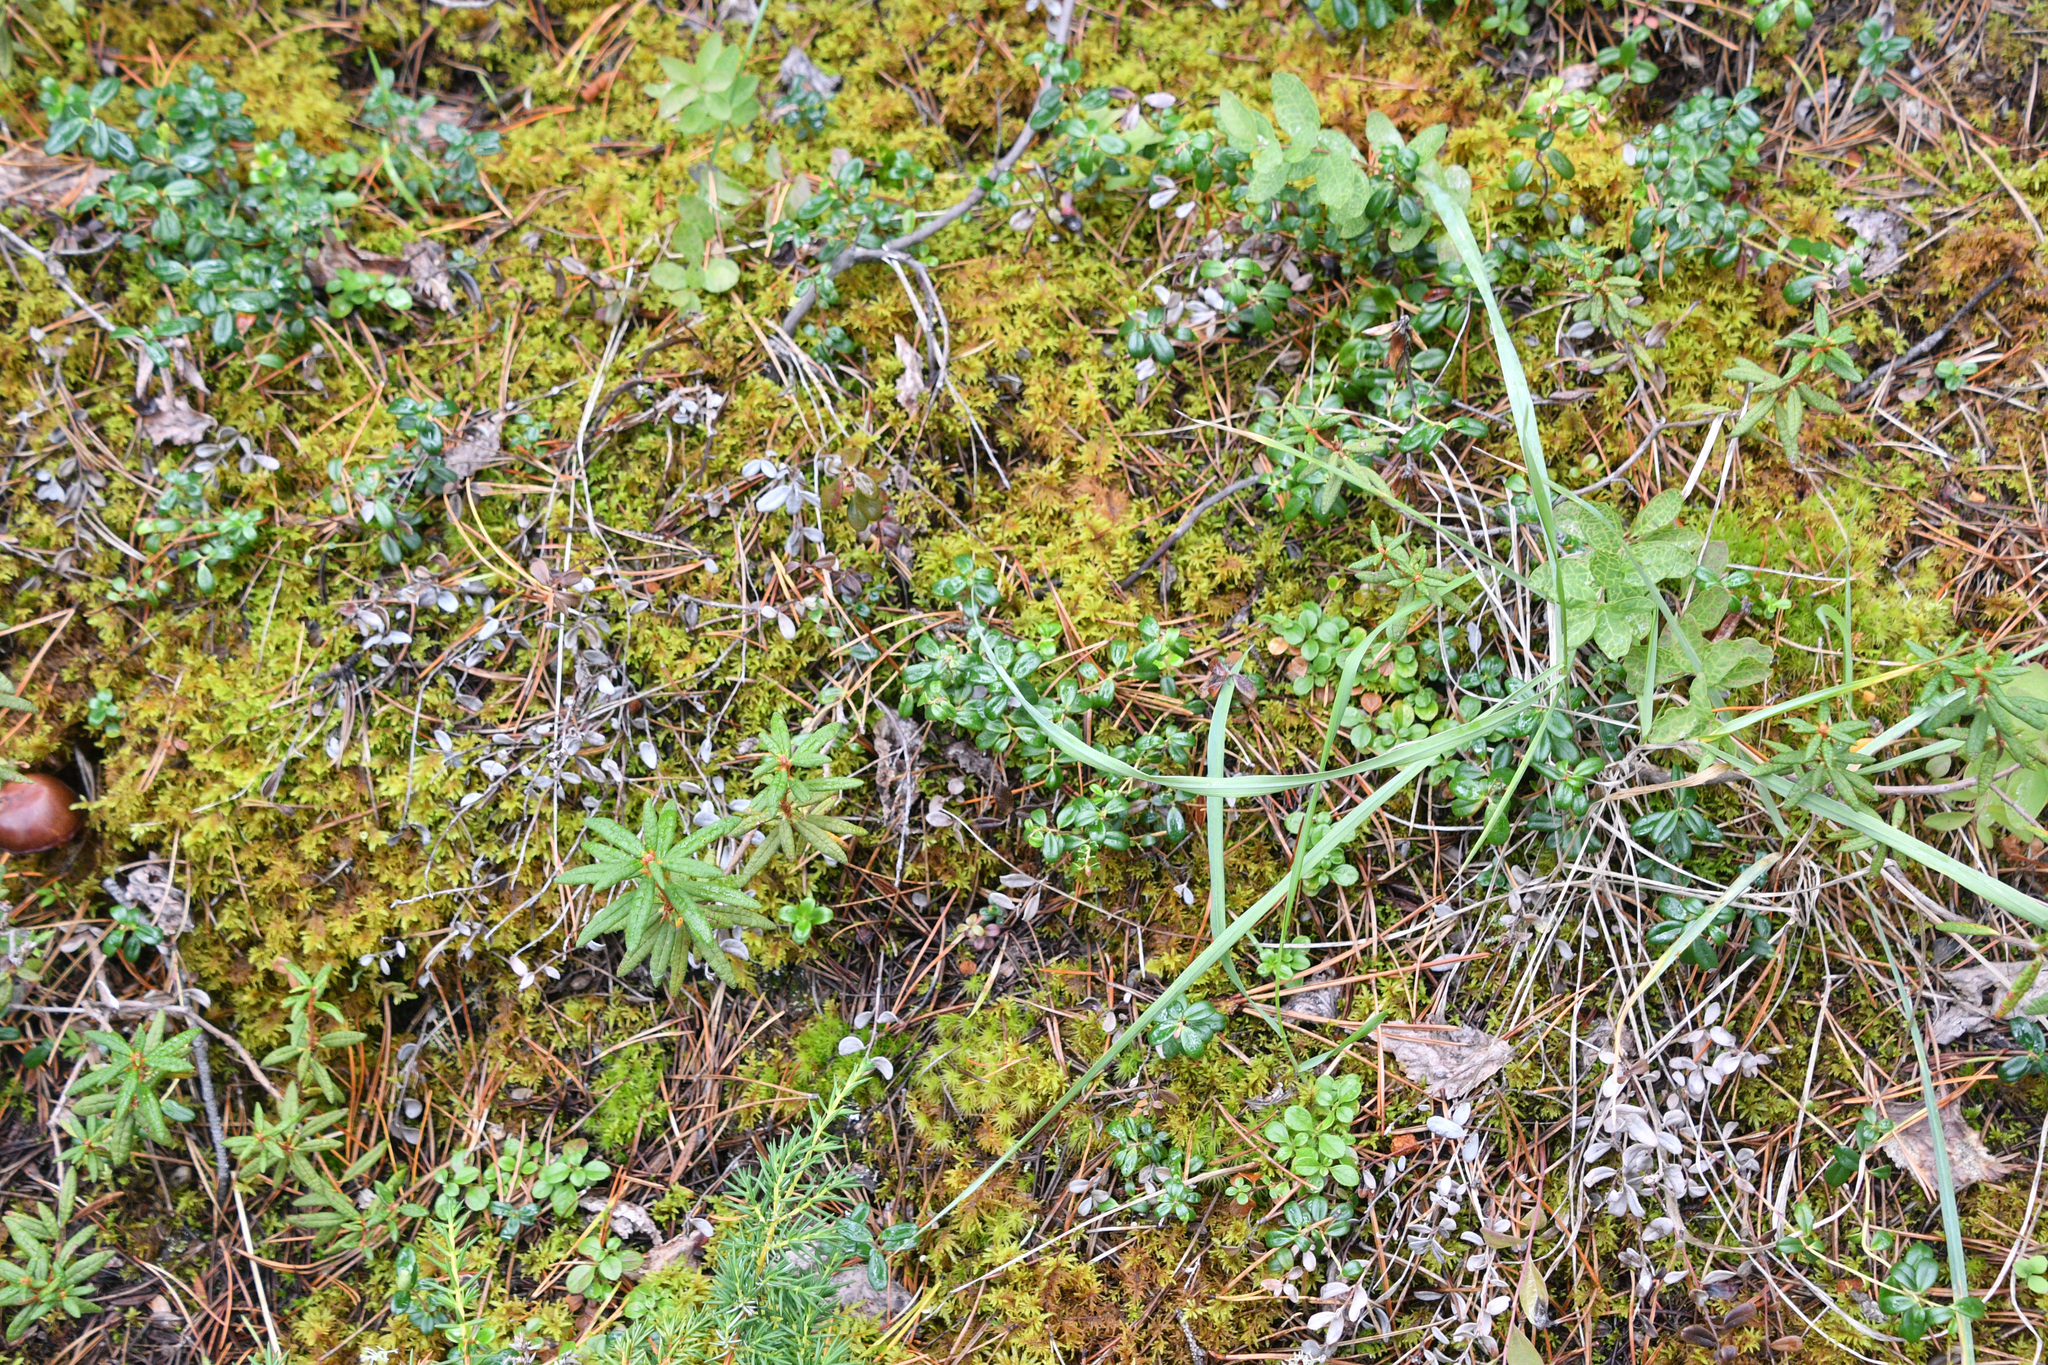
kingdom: Plantae
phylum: Tracheophyta
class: Magnoliopsida
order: Ericales
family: Ericaceae
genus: Vaccinium
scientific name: Vaccinium vitis-idaea
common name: Cowberry
